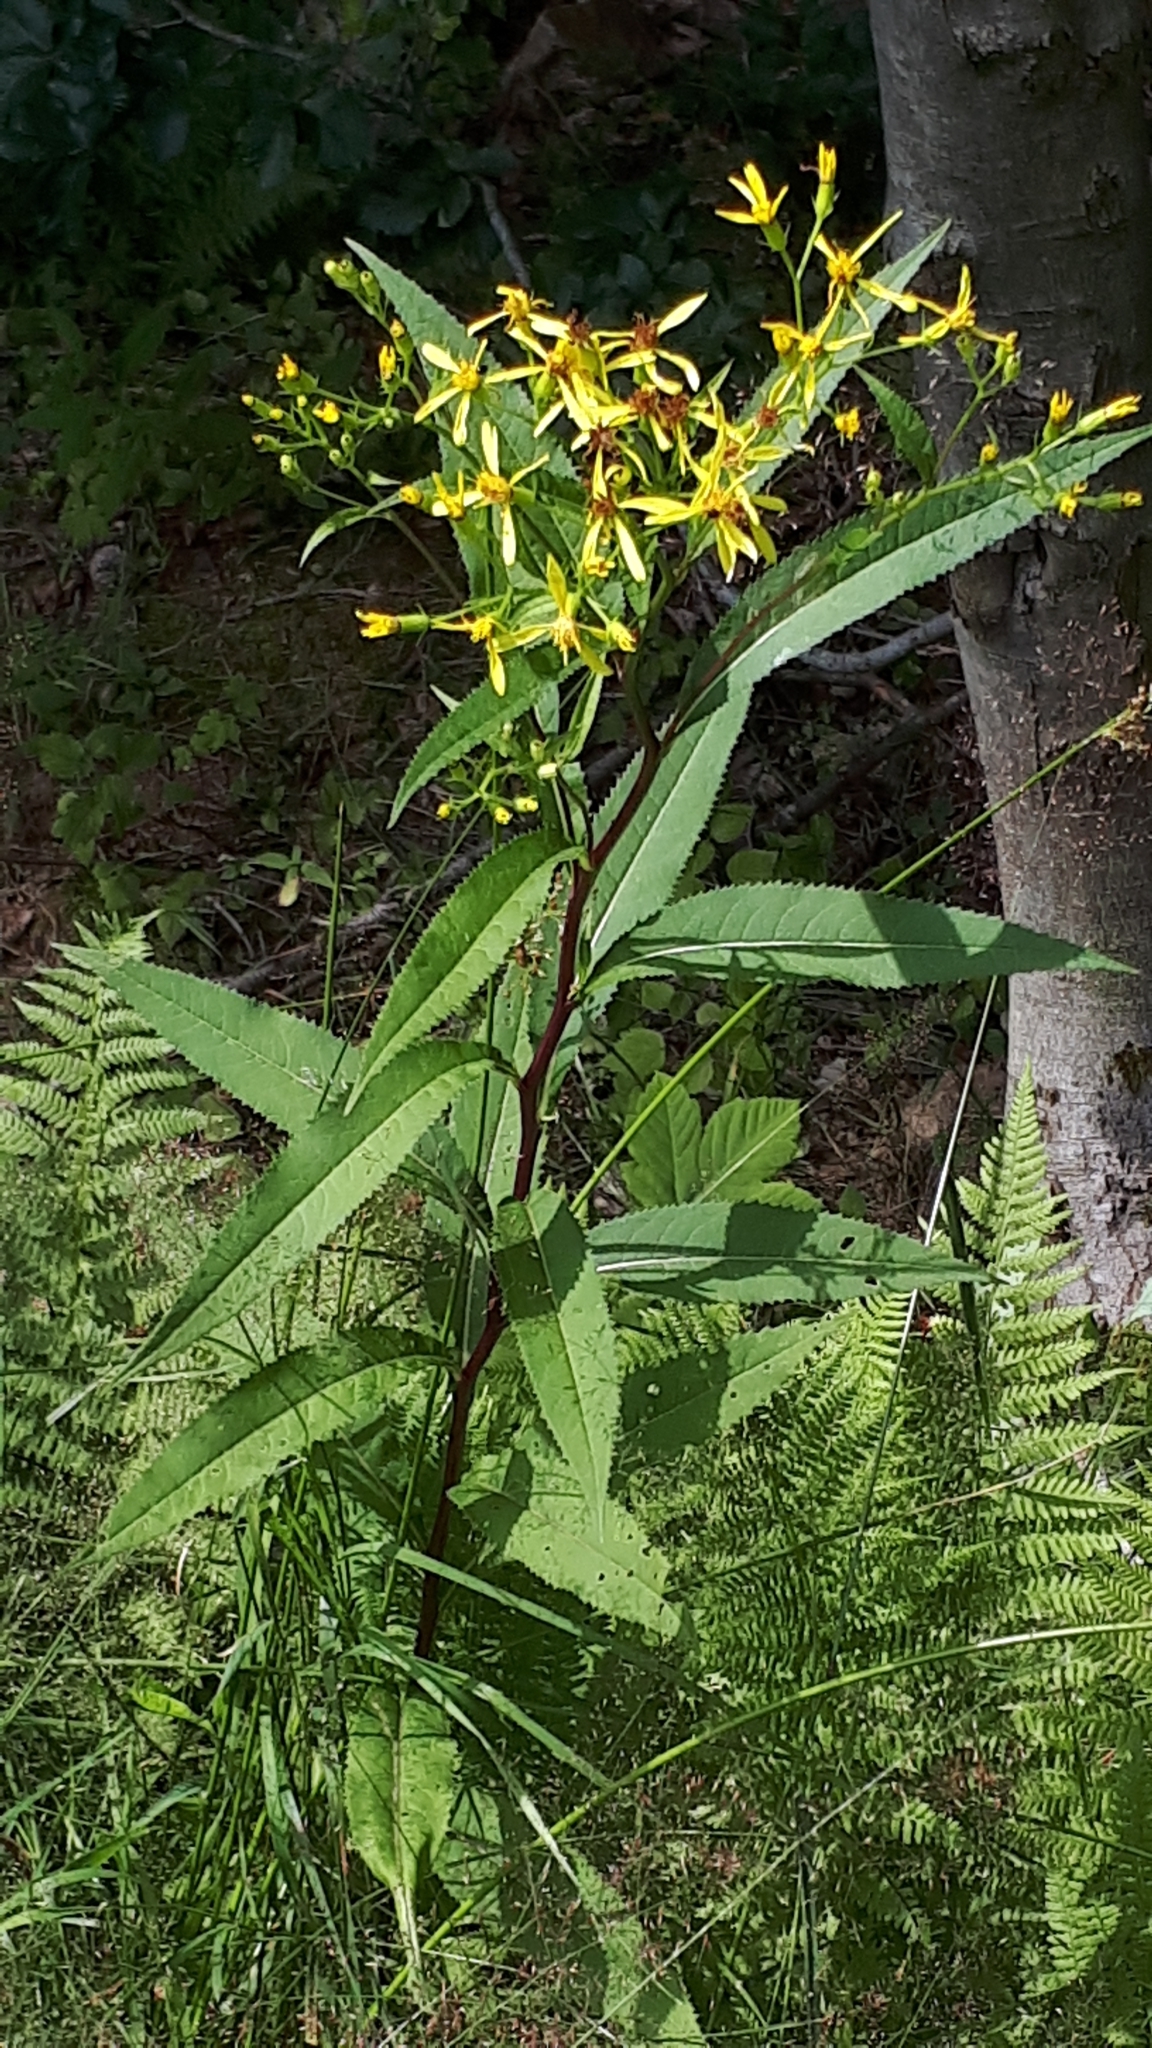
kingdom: Plantae
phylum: Tracheophyta
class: Magnoliopsida
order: Asterales
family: Asteraceae
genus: Senecio
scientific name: Senecio ovatus
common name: Wood ragwort
